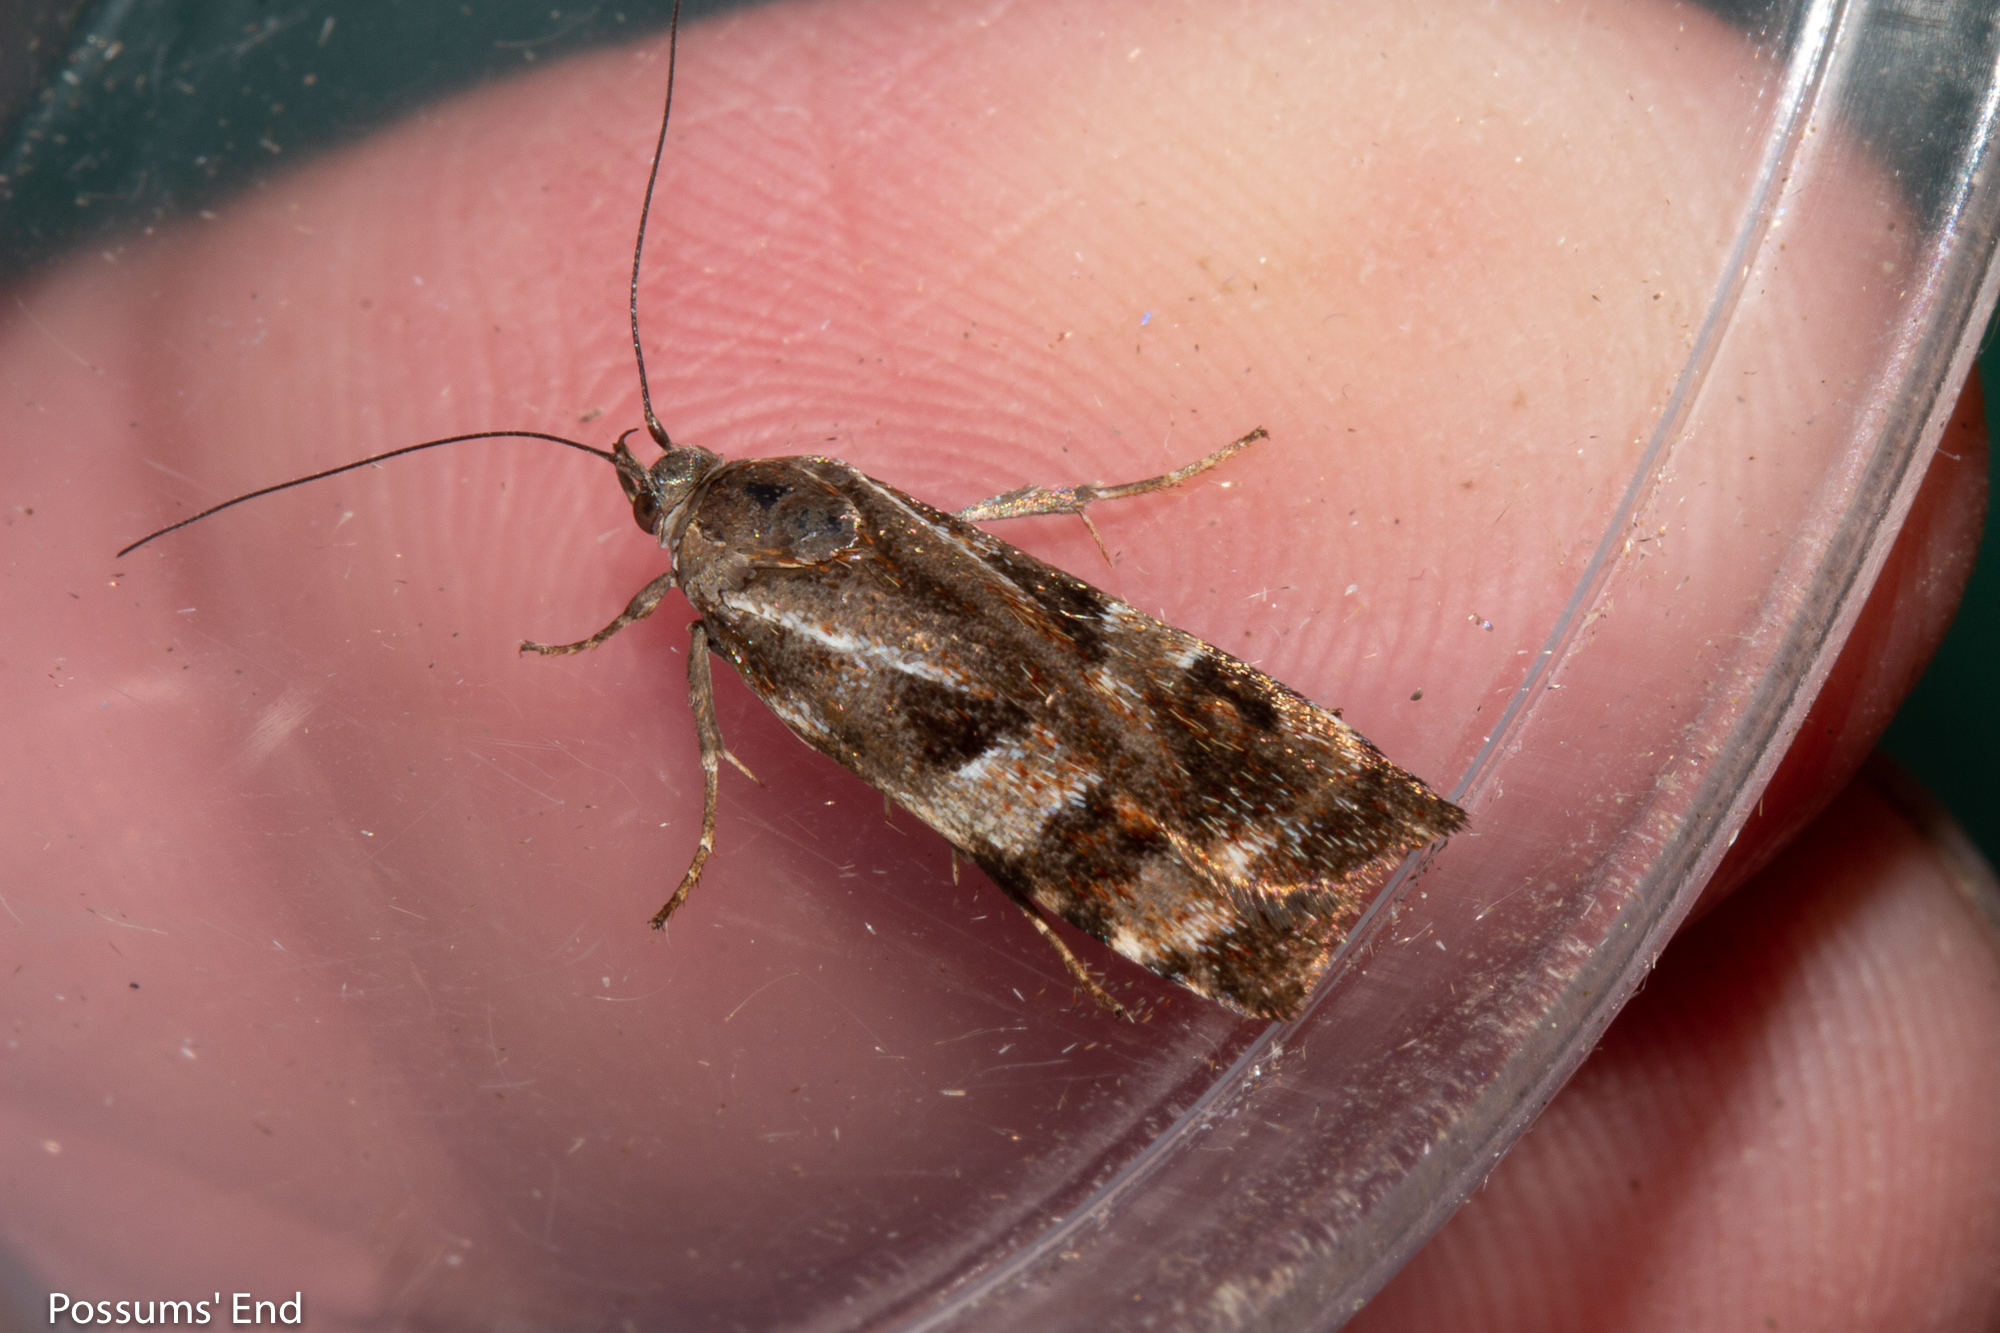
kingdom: Animalia
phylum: Arthropoda
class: Insecta
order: Lepidoptera
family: Oecophoridae
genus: Hierodoris
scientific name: Hierodoris
